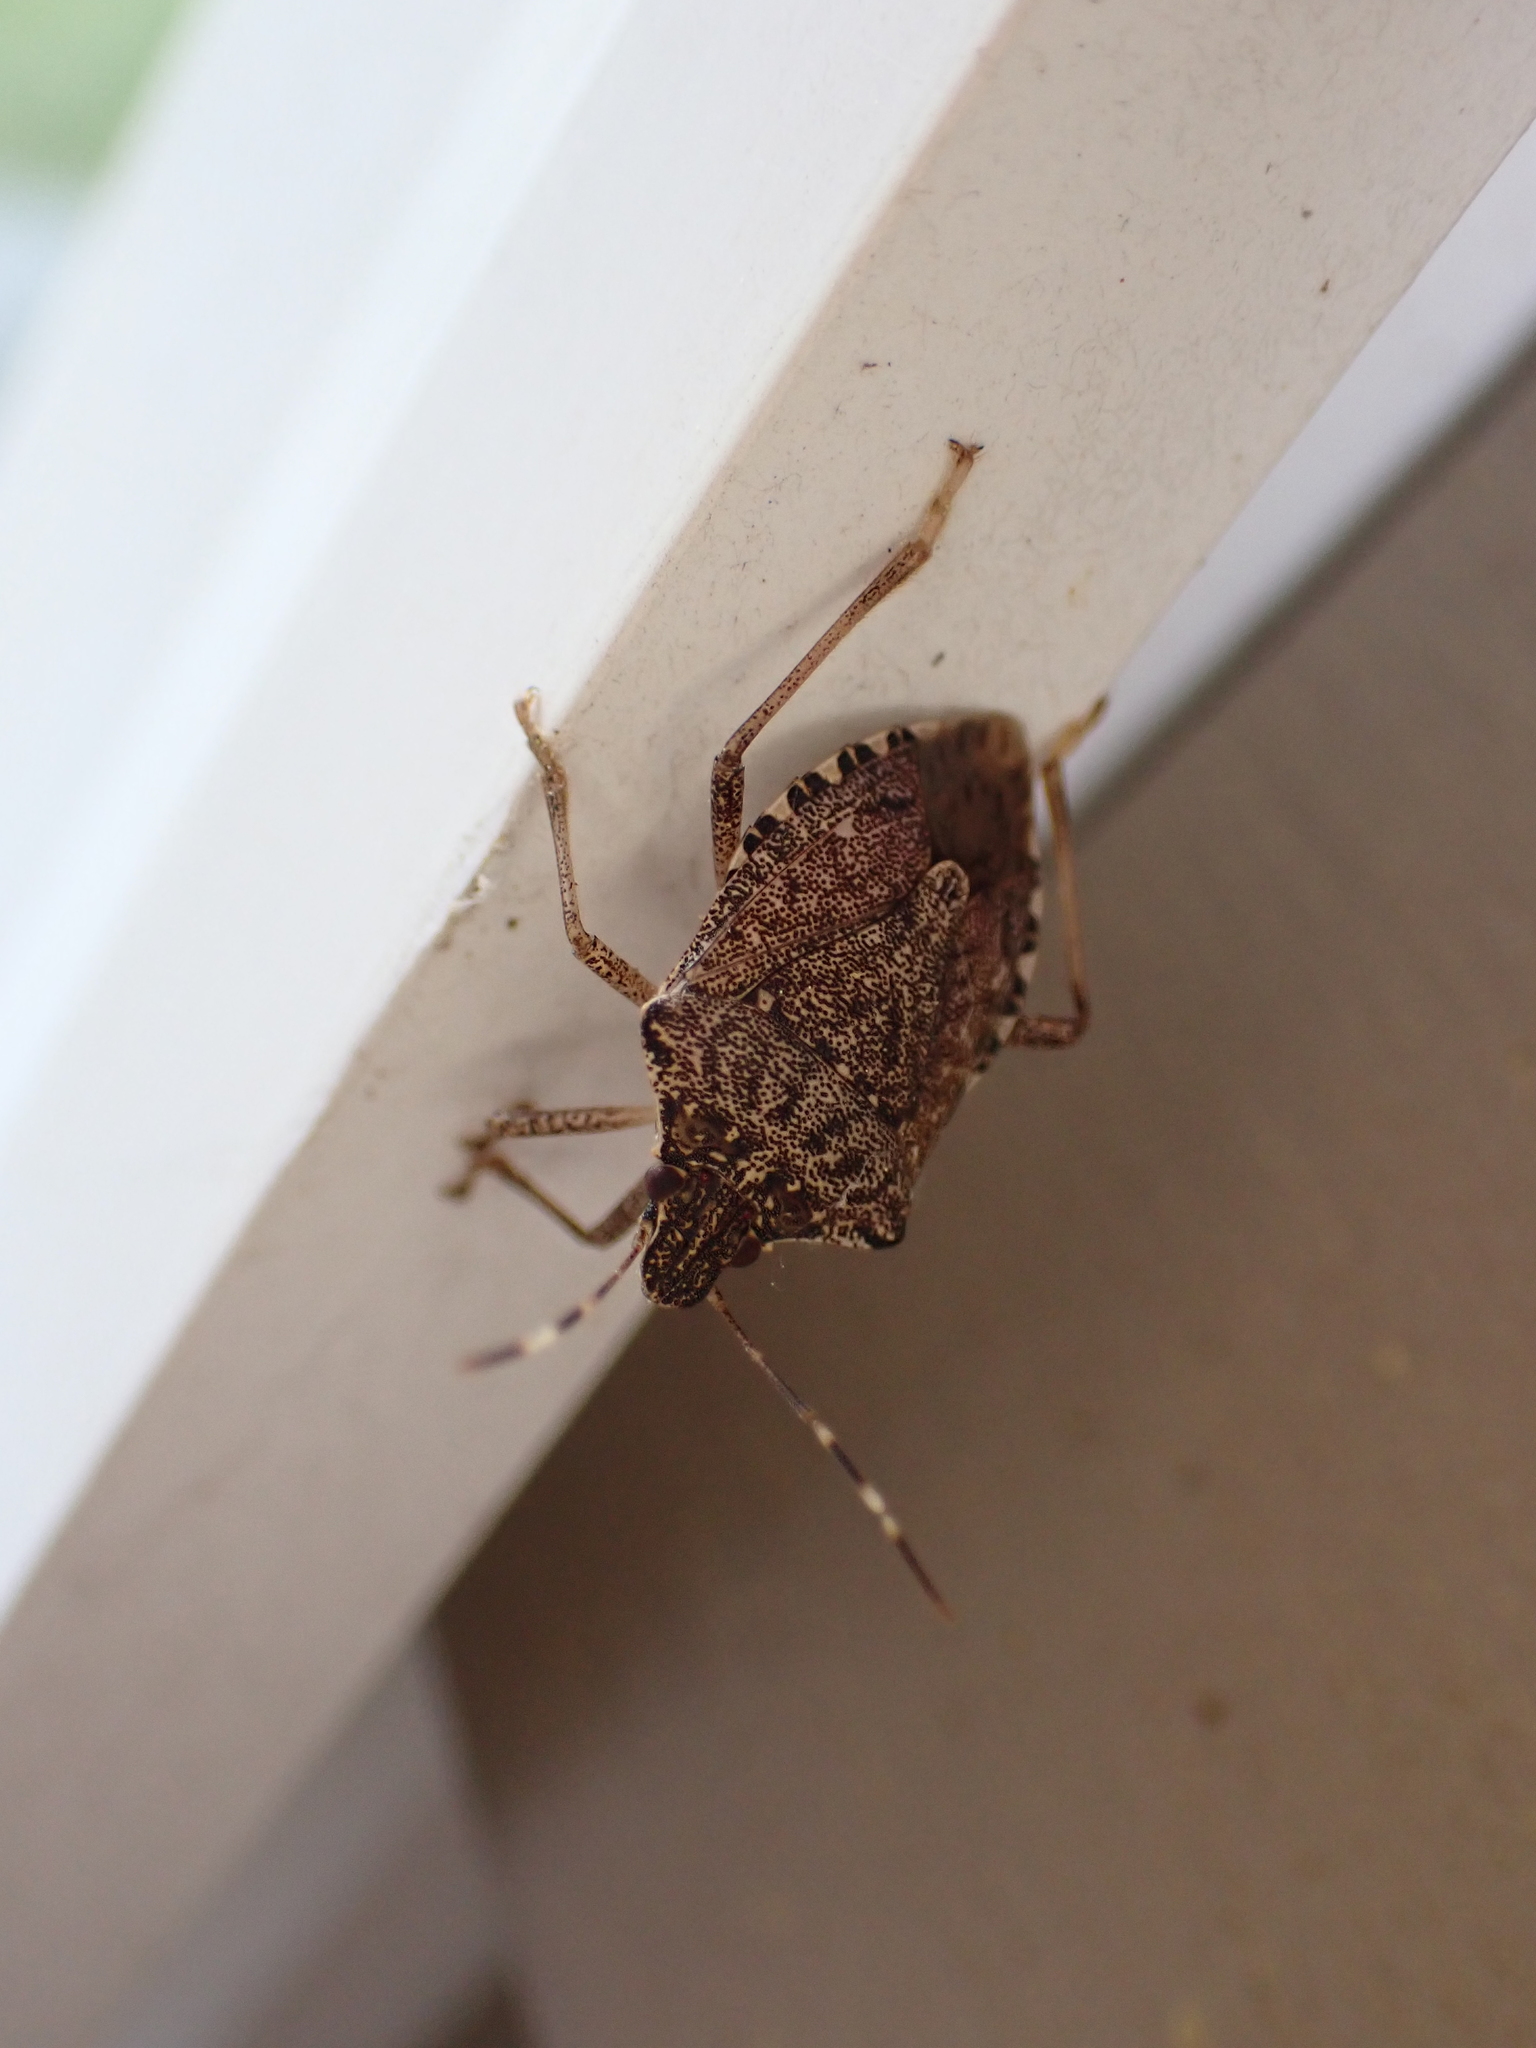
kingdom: Animalia
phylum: Arthropoda
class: Insecta
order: Hemiptera
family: Pentatomidae
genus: Halyomorpha
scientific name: Halyomorpha halys
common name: Brown marmorated stink bug
